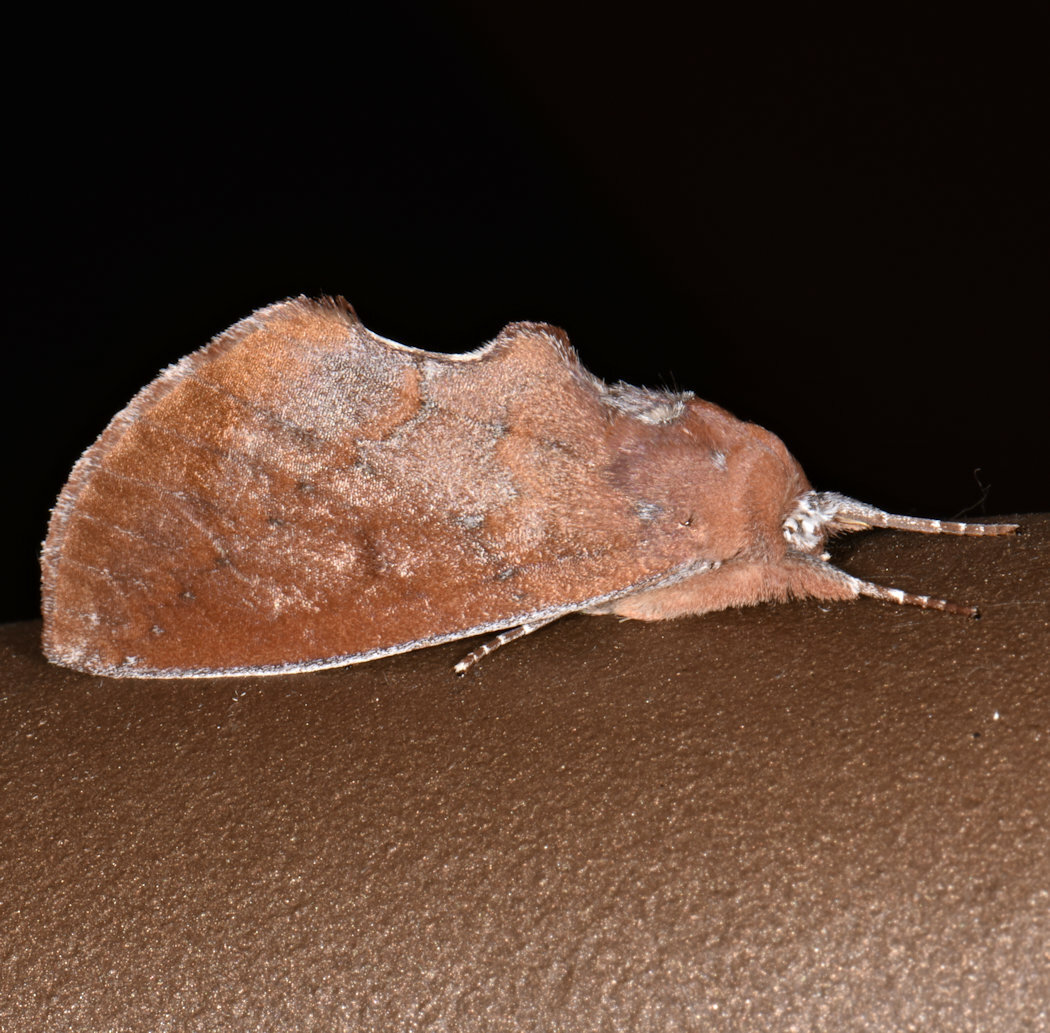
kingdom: Animalia
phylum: Arthropoda
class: Insecta
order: Lepidoptera
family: Notodontidae
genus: Hemiceras
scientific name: Hemiceras rufescens
